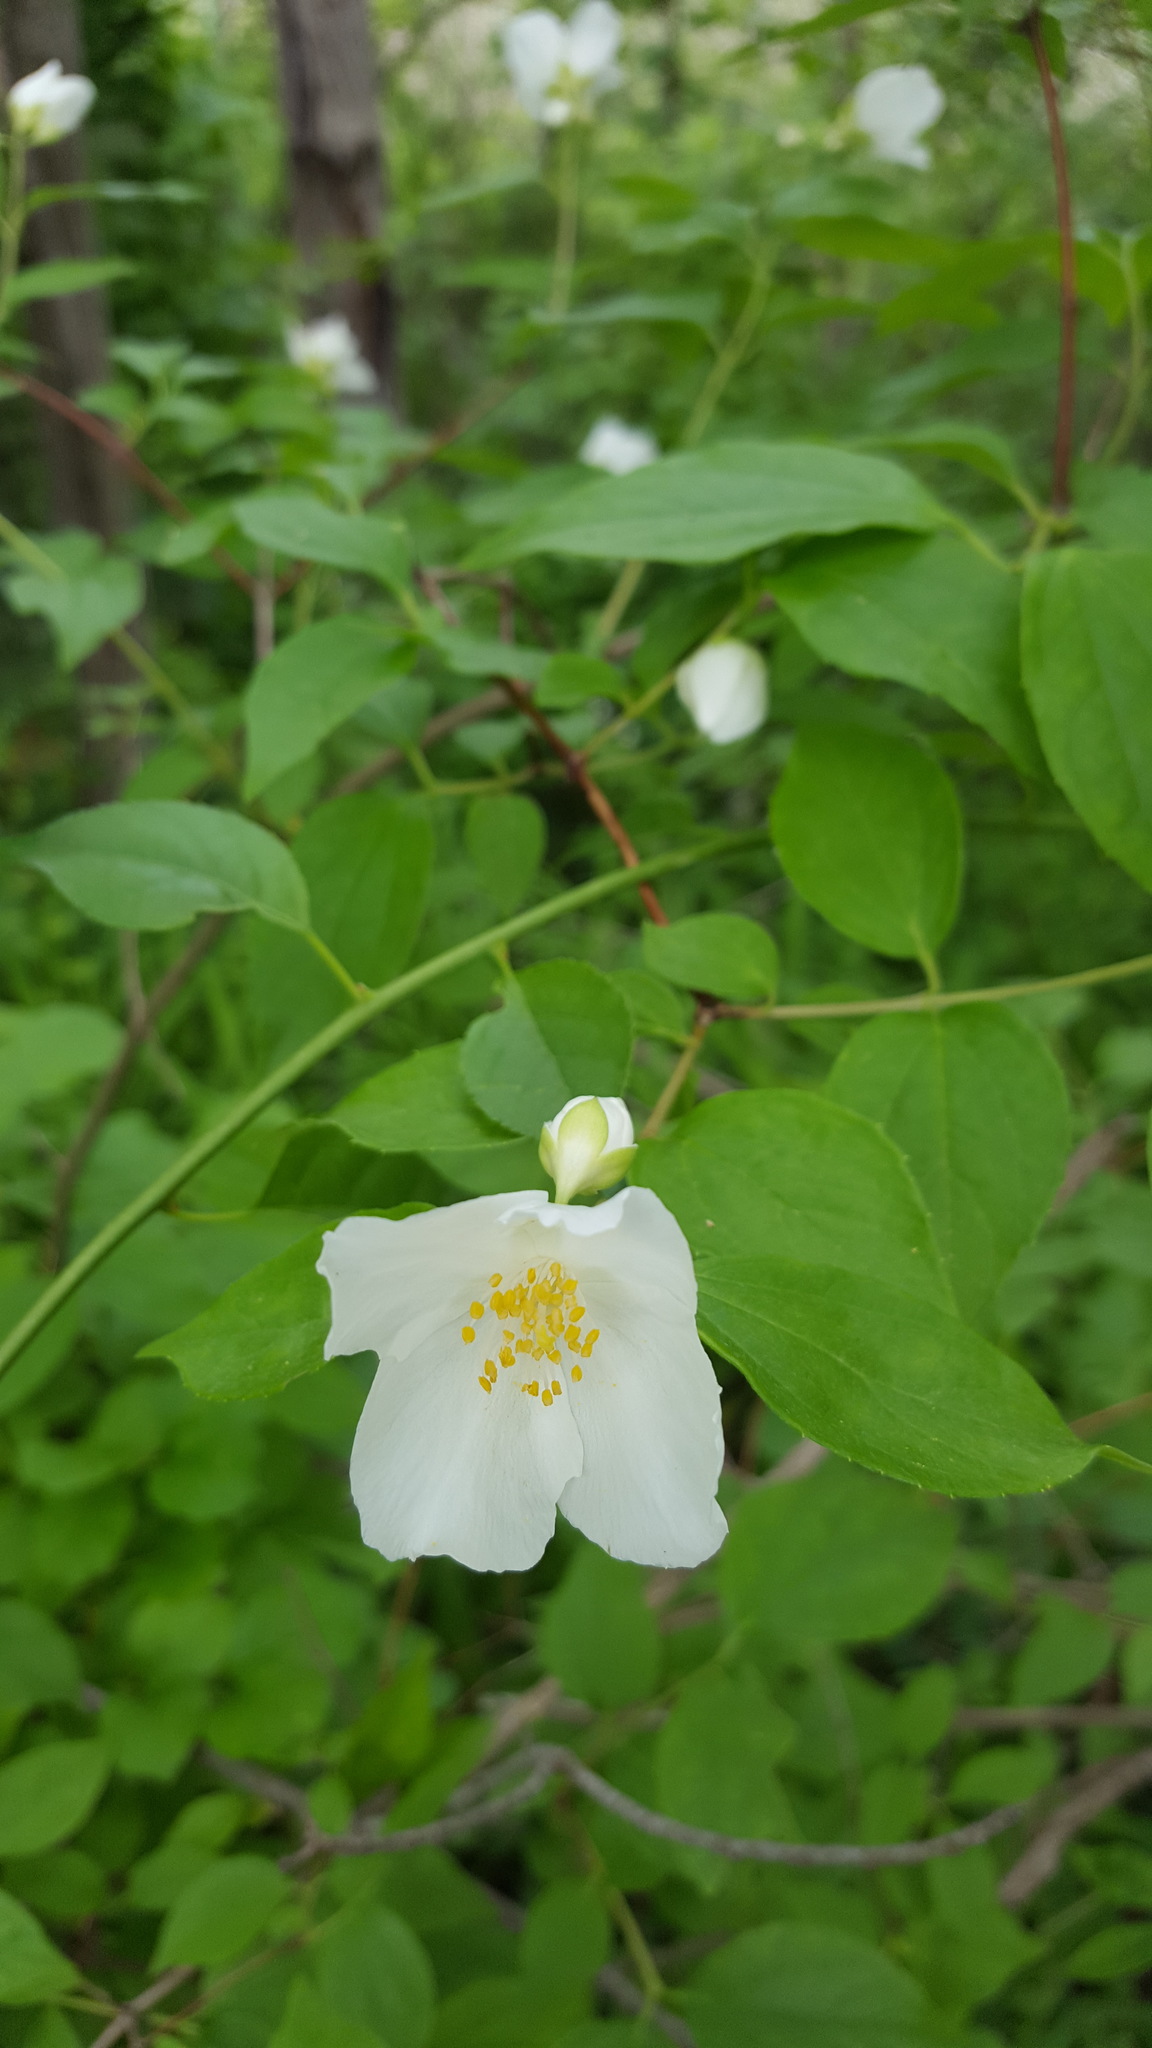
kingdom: Plantae
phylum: Tracheophyta
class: Magnoliopsida
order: Cornales
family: Hydrangeaceae
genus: Philadelphus
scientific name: Philadelphus coronarius
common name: Mock orange
